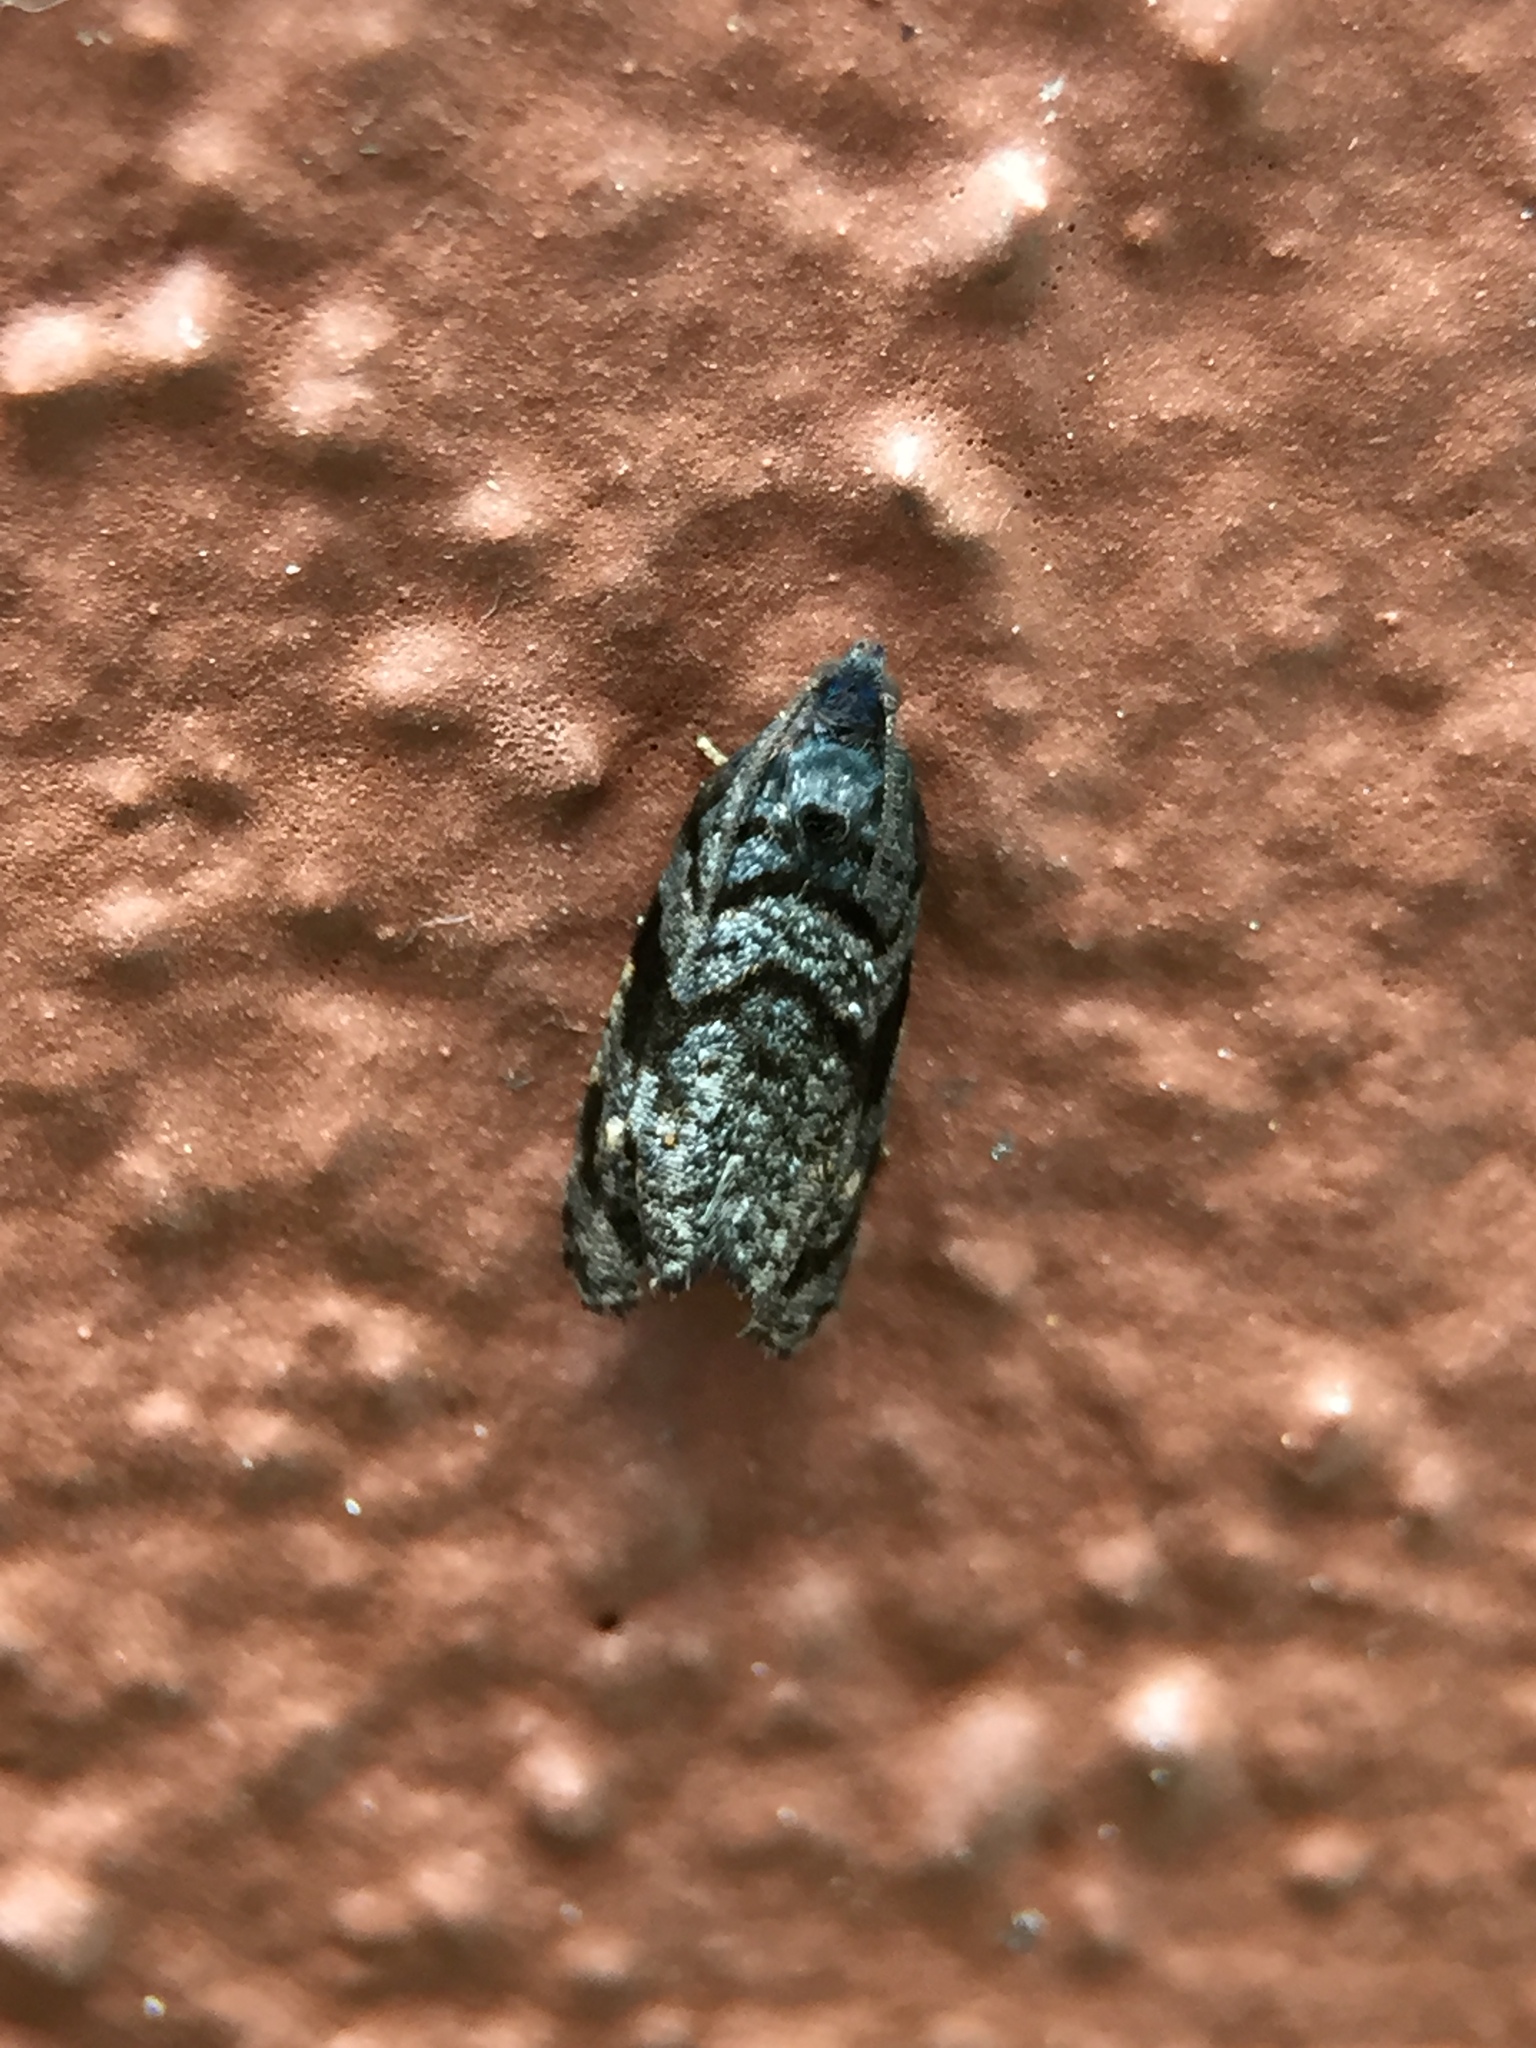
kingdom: Animalia
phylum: Arthropoda
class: Insecta
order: Lepidoptera
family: Tortricidae
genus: Ecclitica
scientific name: Ecclitica hemiclista
